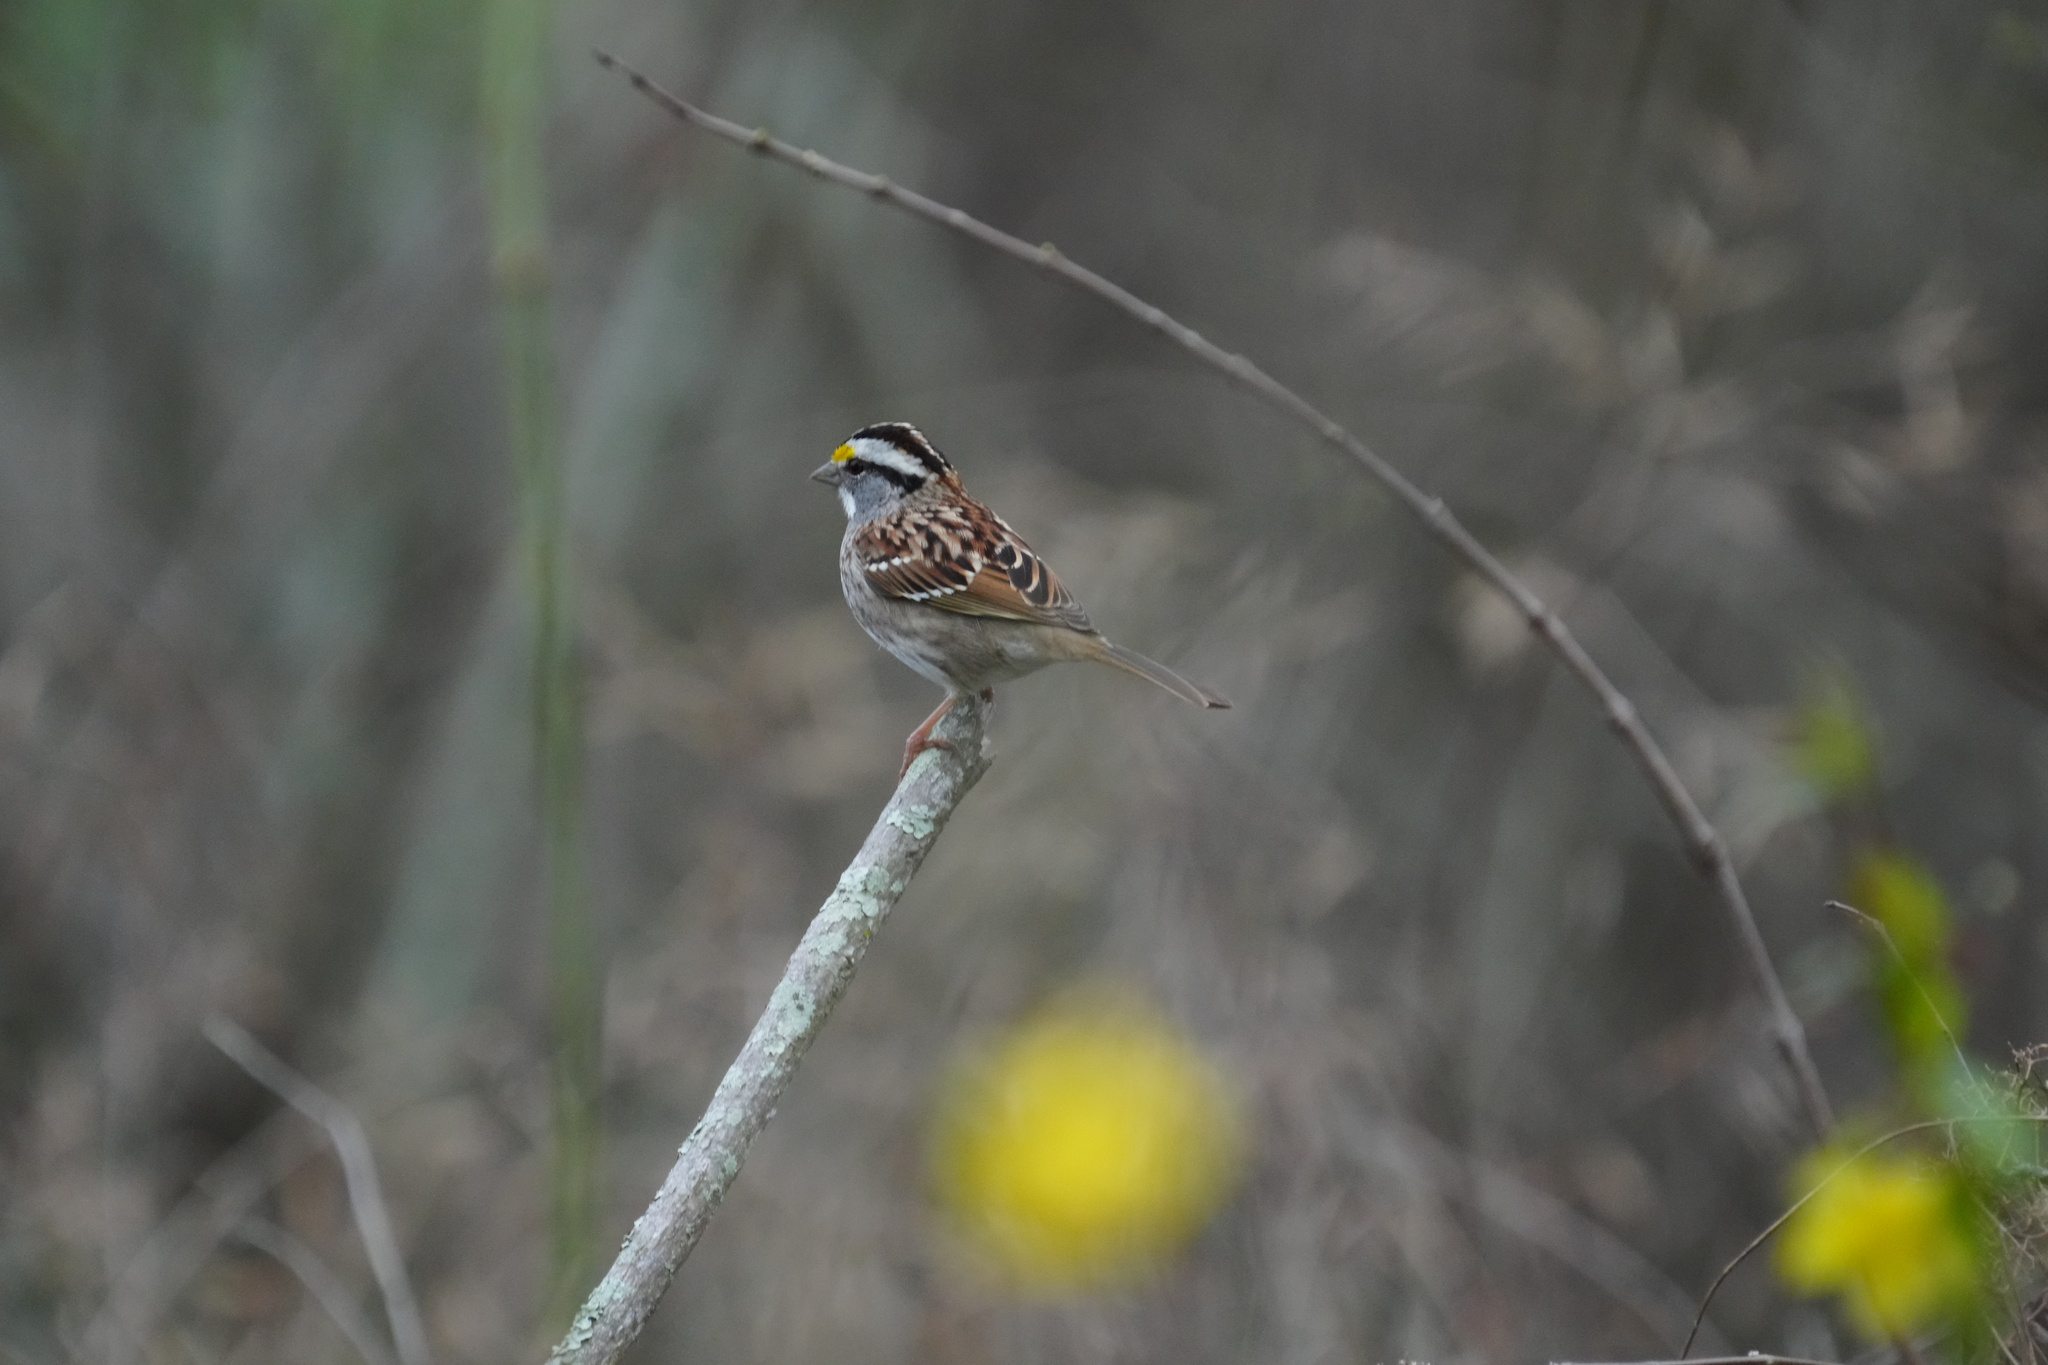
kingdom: Animalia
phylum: Chordata
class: Aves
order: Passeriformes
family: Passerellidae
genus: Zonotrichia
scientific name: Zonotrichia albicollis
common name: White-throated sparrow
